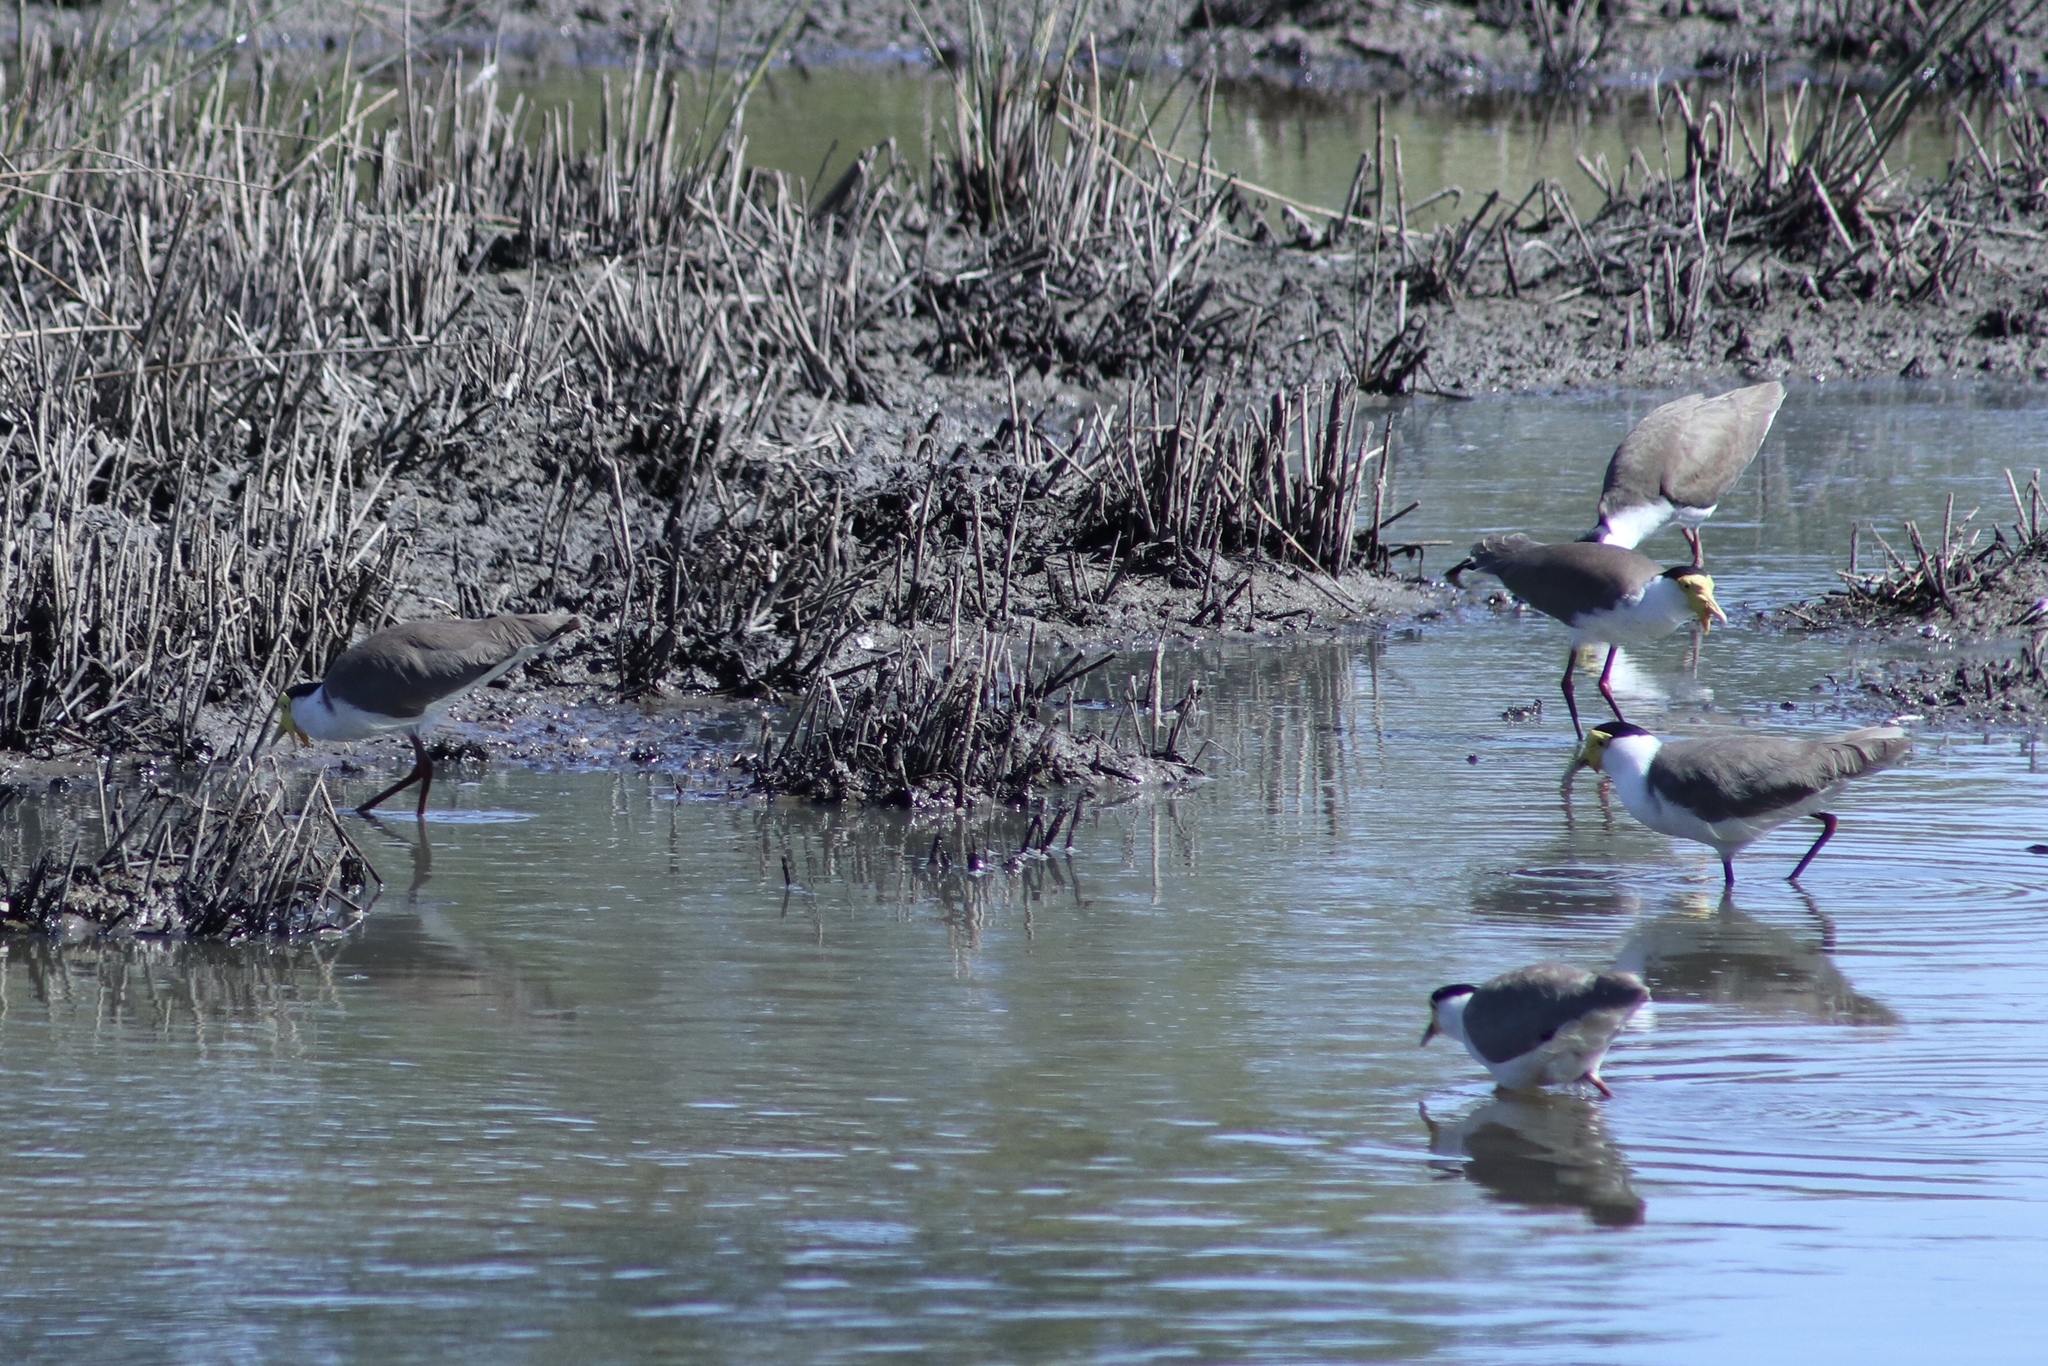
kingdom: Animalia
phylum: Chordata
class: Aves
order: Charadriiformes
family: Charadriidae
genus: Vanellus
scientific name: Vanellus miles
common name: Masked lapwing
